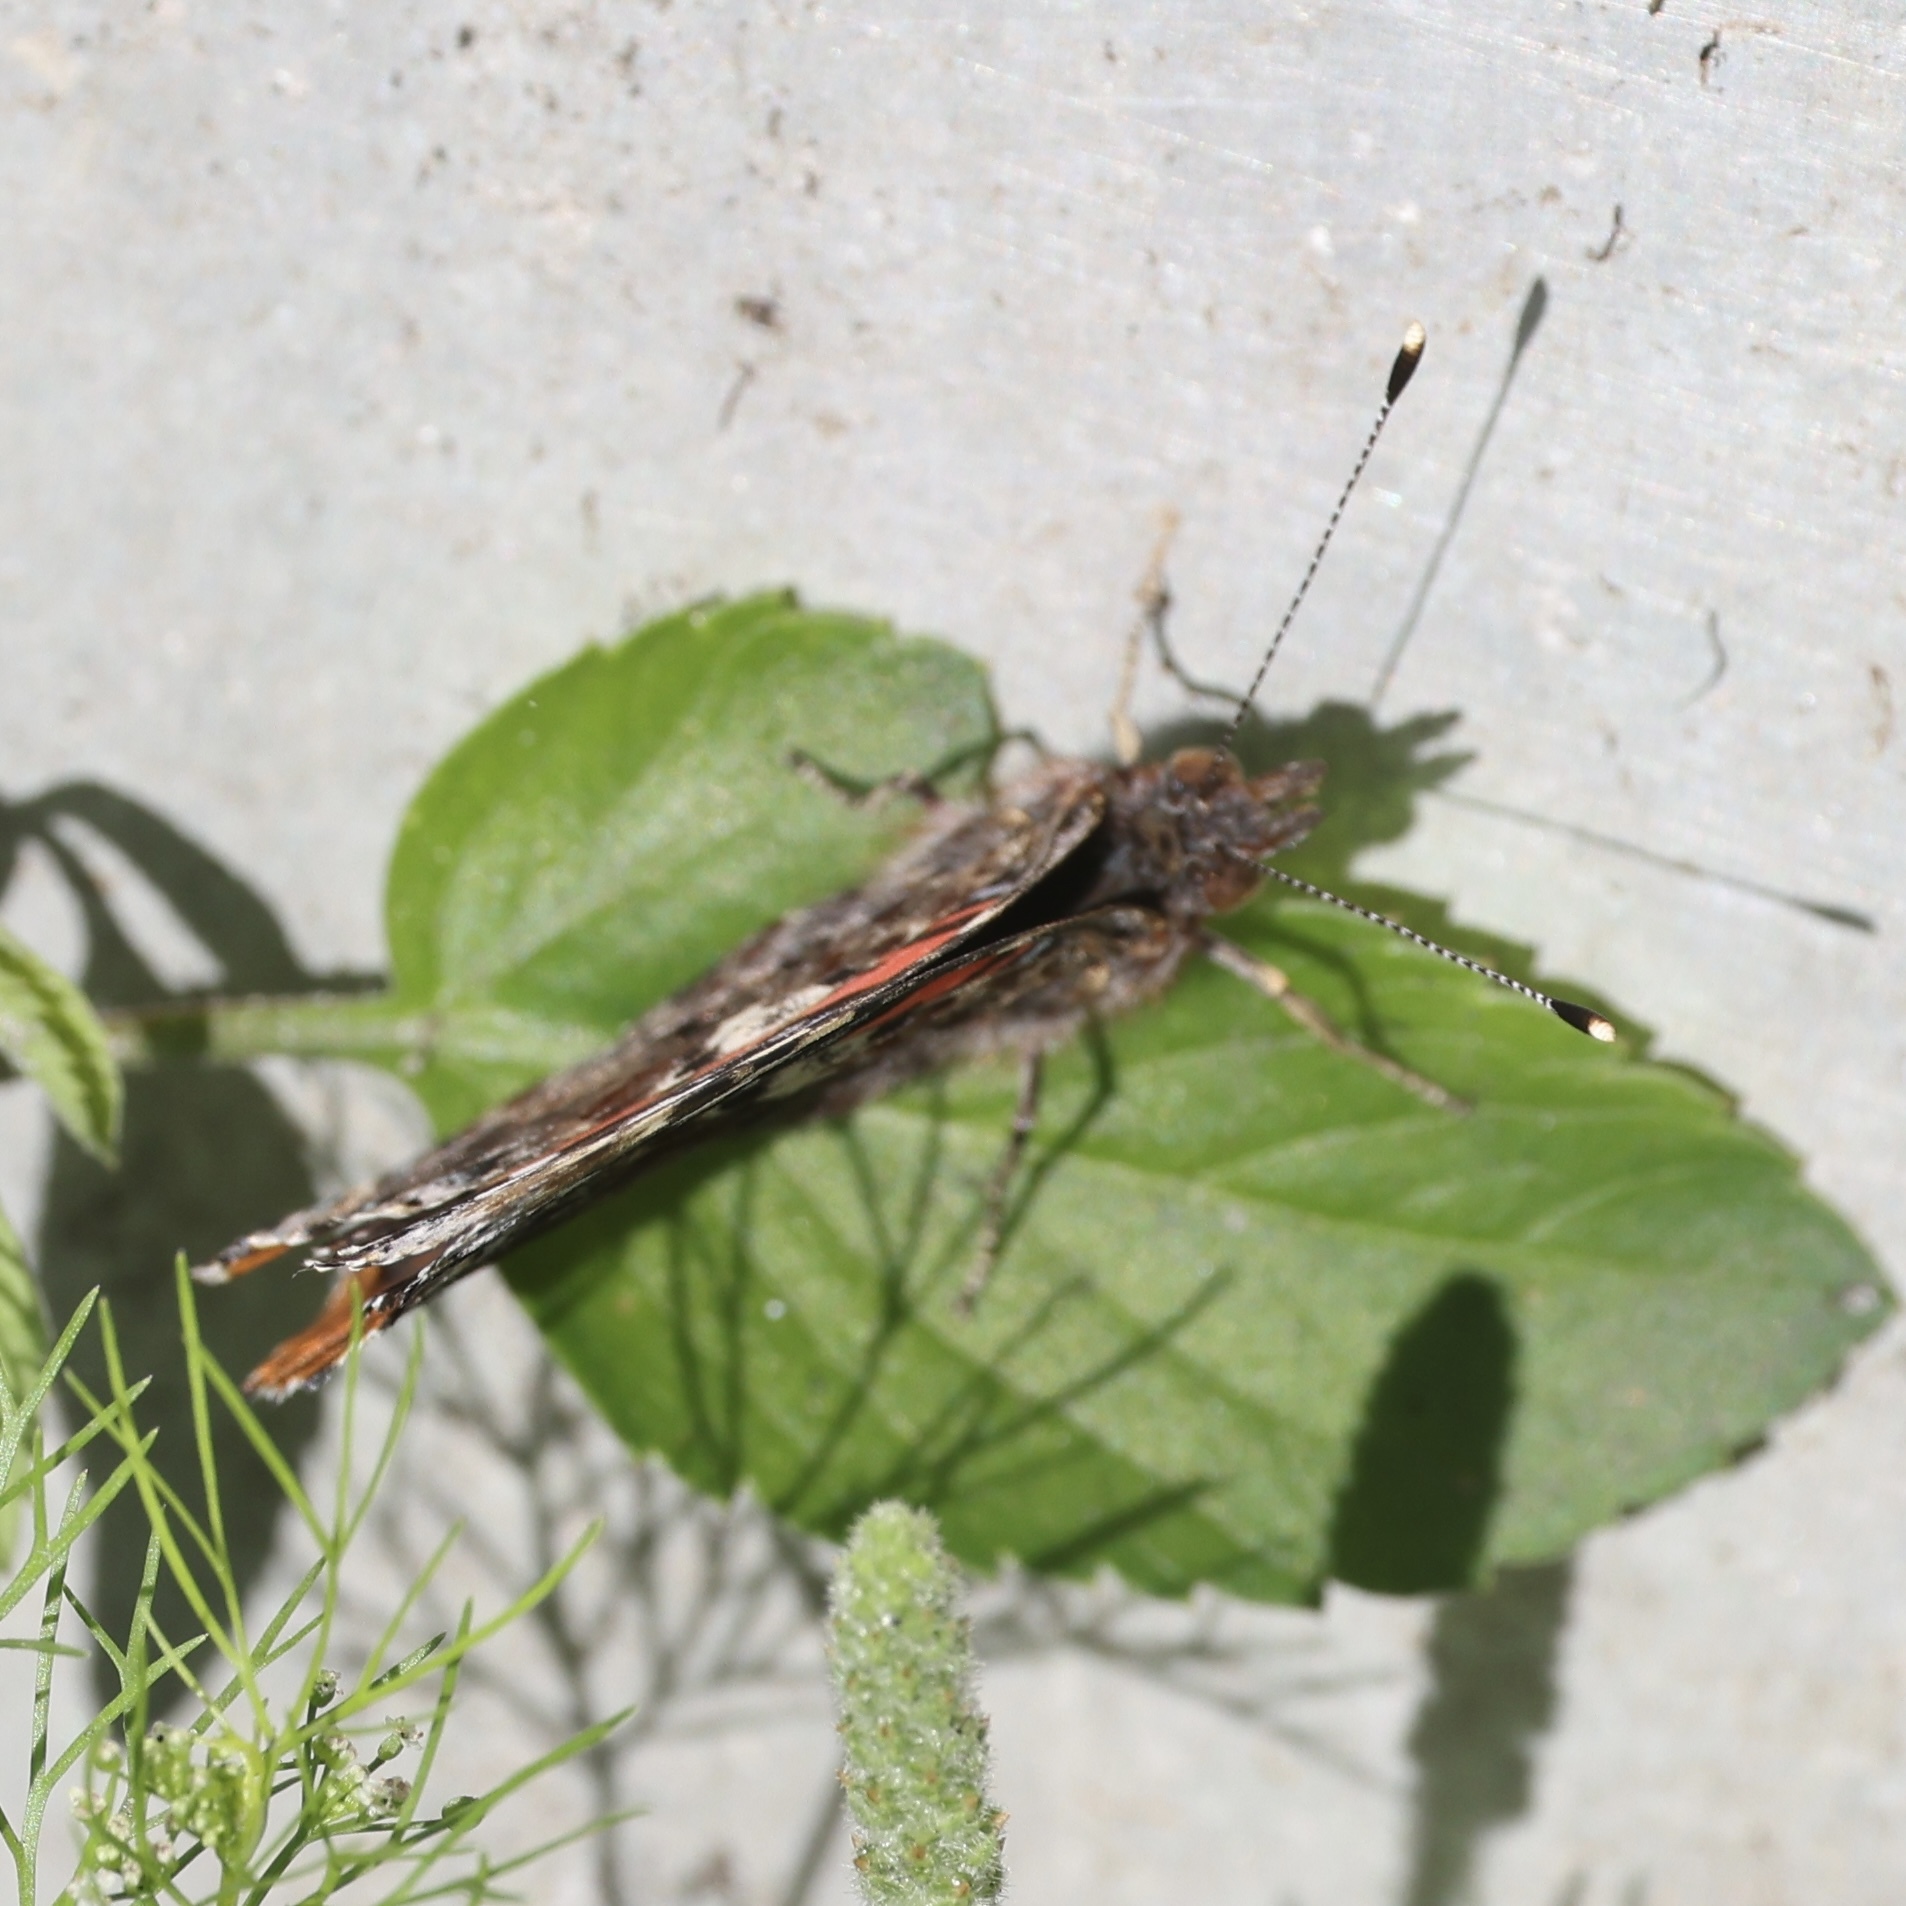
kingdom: Animalia
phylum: Arthropoda
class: Insecta
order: Lepidoptera
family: Nymphalidae
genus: Vanessa
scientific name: Vanessa atalanta
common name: Red admiral
